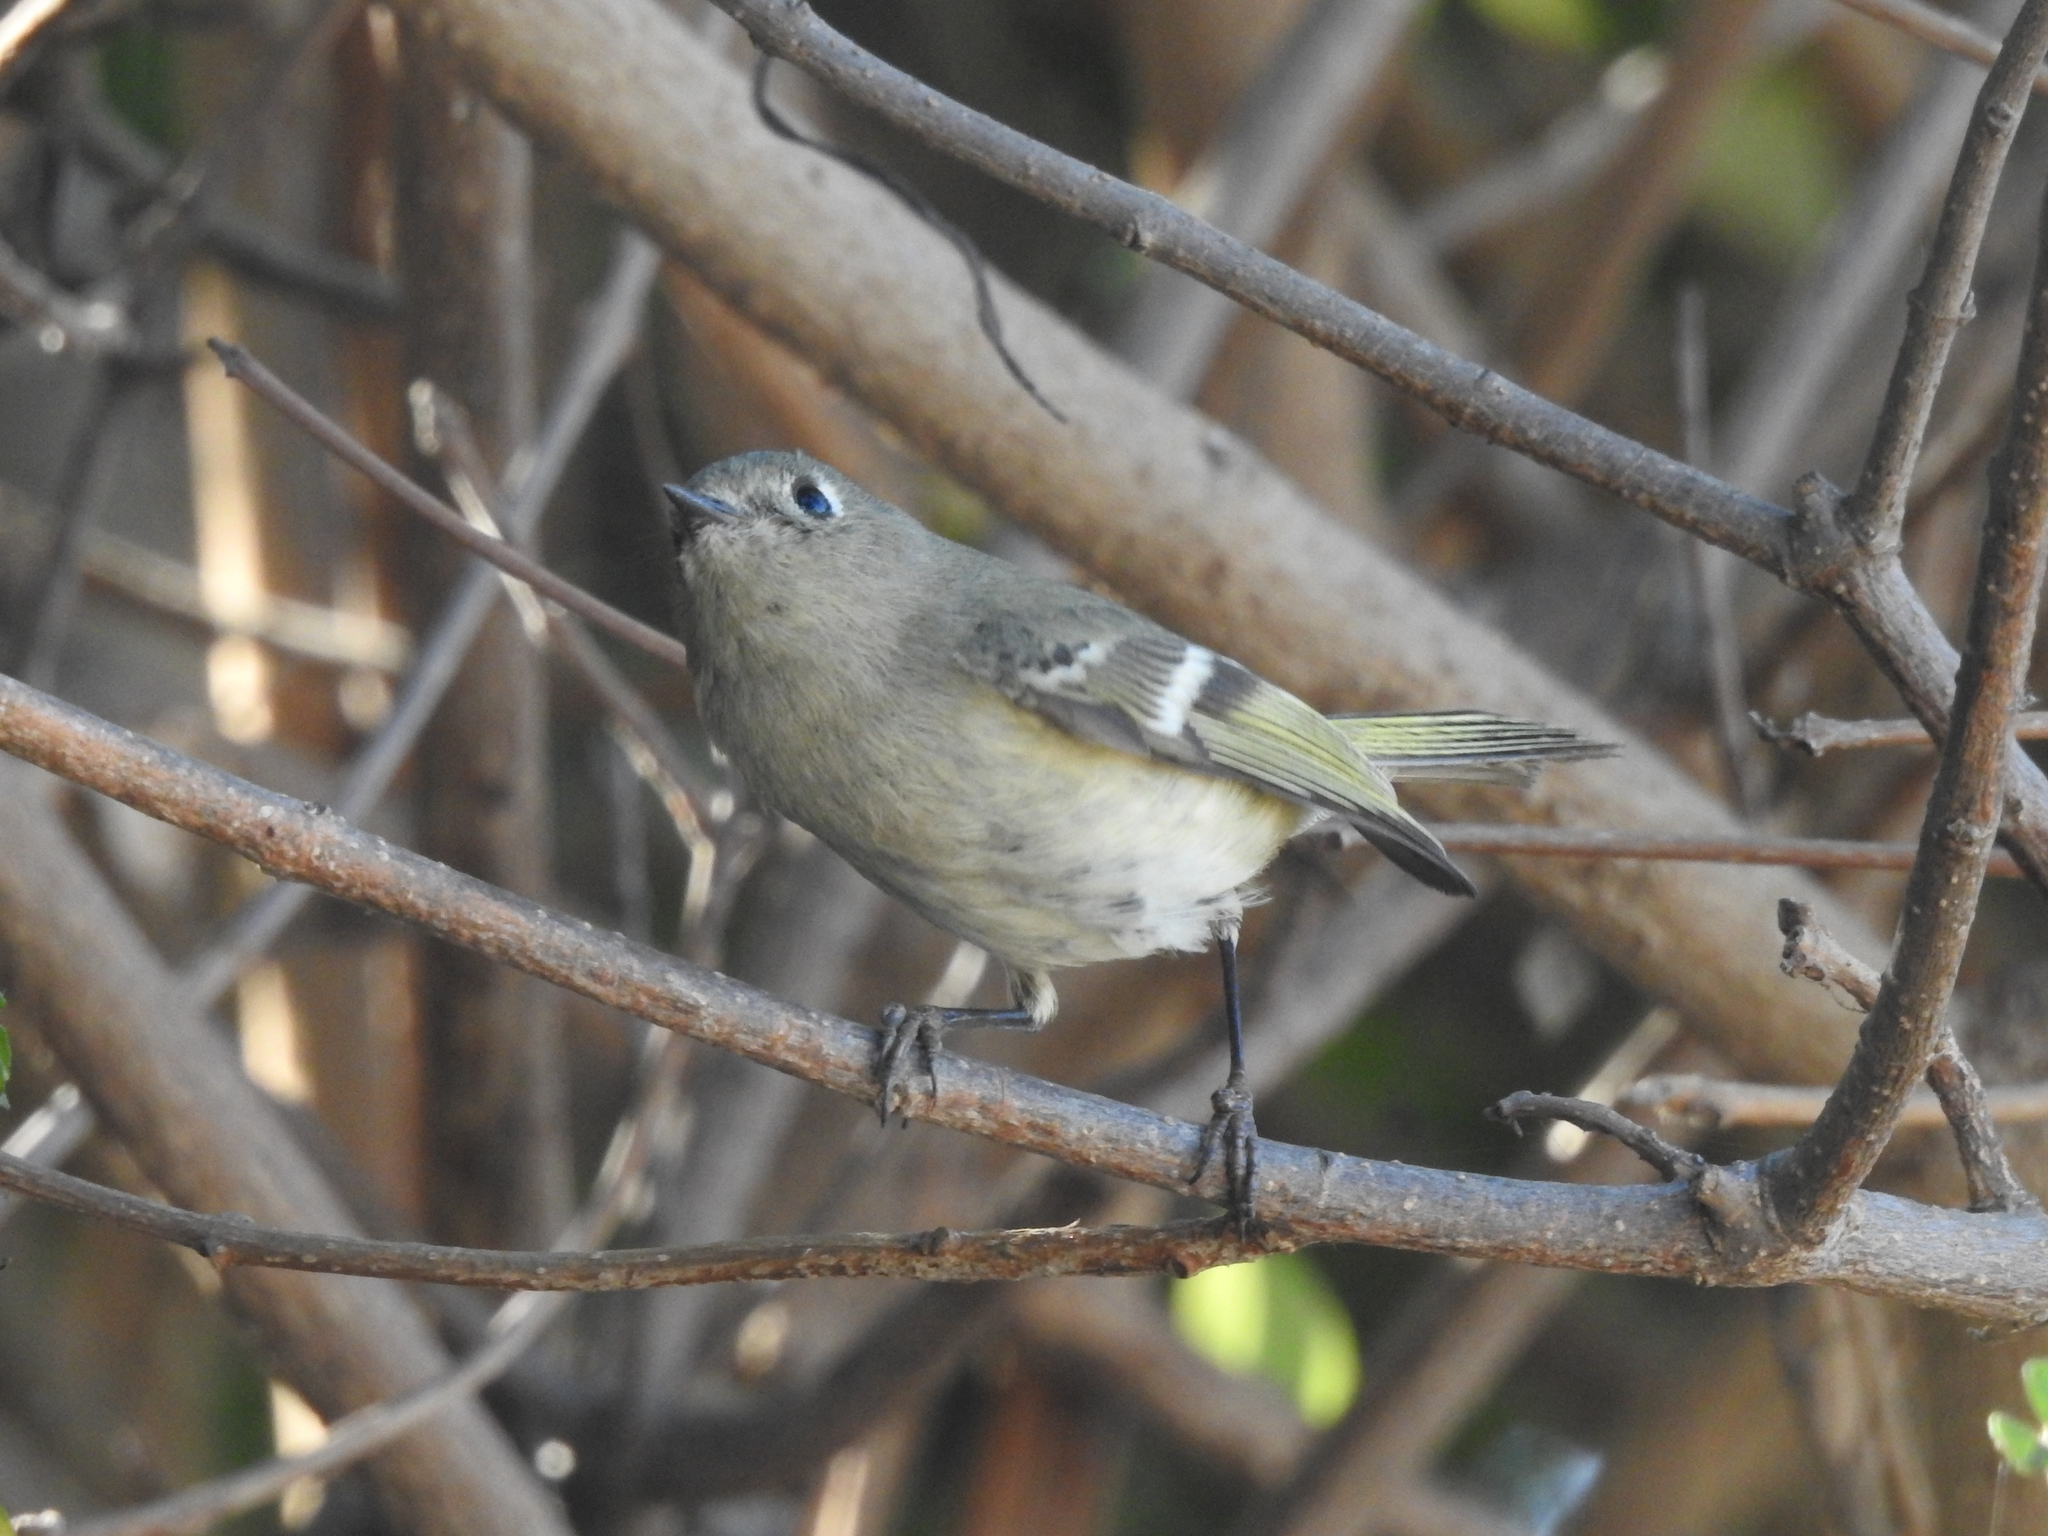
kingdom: Animalia
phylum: Chordata
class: Aves
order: Passeriformes
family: Regulidae
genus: Regulus
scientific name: Regulus calendula
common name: Ruby-crowned kinglet
